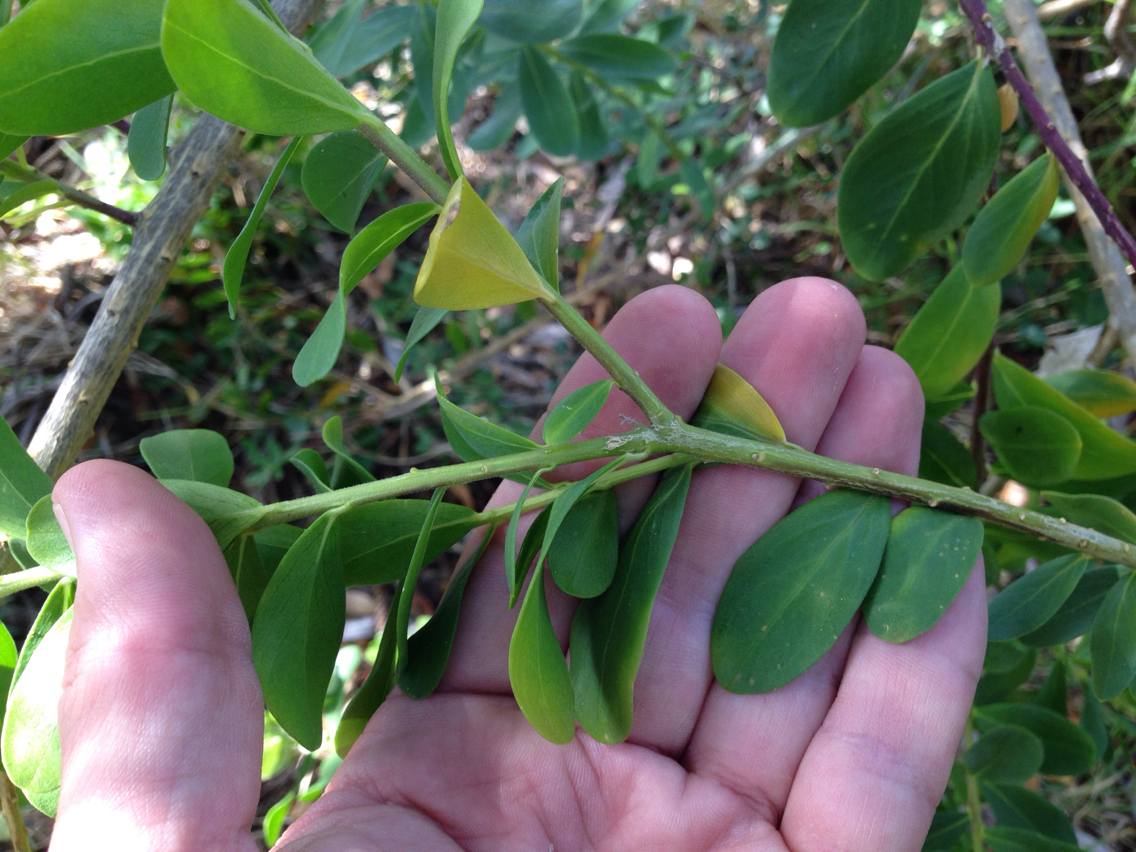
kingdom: Plantae
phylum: Tracheophyta
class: Magnoliopsida
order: Fabales
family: Polygalaceae
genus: Polygala
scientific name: Polygala myrtifolia
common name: Myrtle-leaf milkwort
